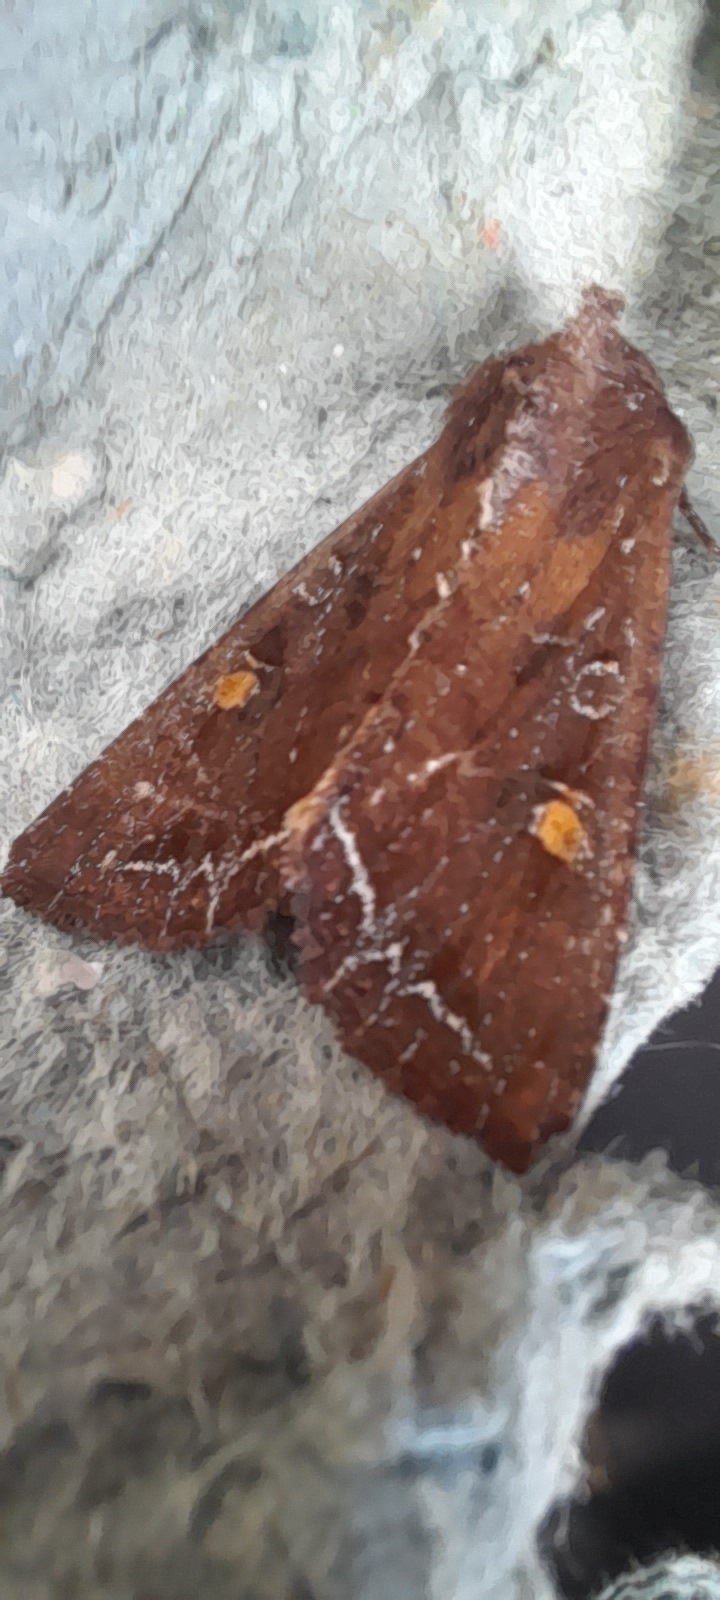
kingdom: Animalia
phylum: Arthropoda
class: Insecta
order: Lepidoptera
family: Noctuidae
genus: Lacanobia
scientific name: Lacanobia oleracea
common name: Bright-line brown-eye
